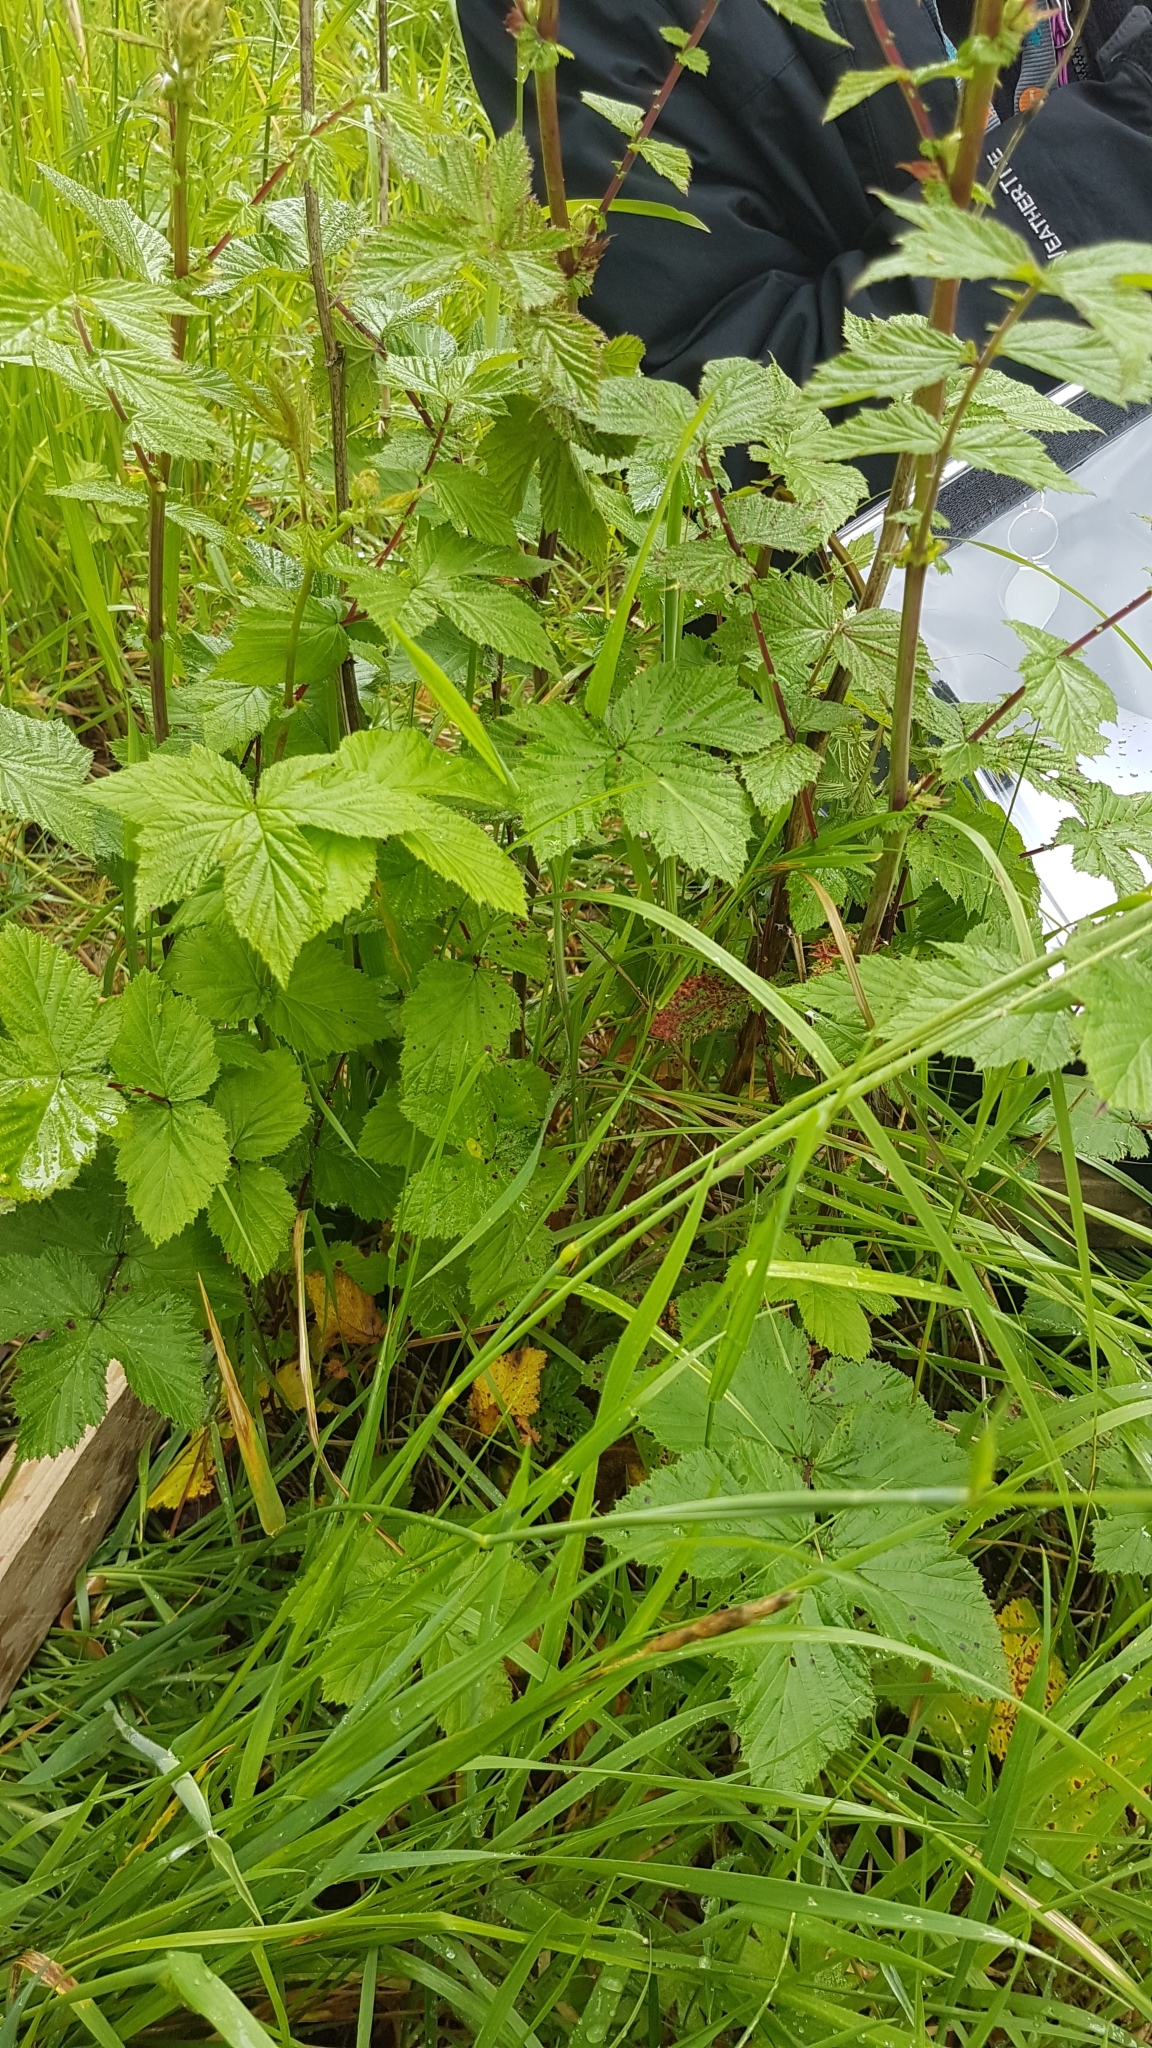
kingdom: Plantae
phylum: Tracheophyta
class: Magnoliopsida
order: Rosales
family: Rosaceae
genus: Filipendula
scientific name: Filipendula ulmaria
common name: Meadowsweet
